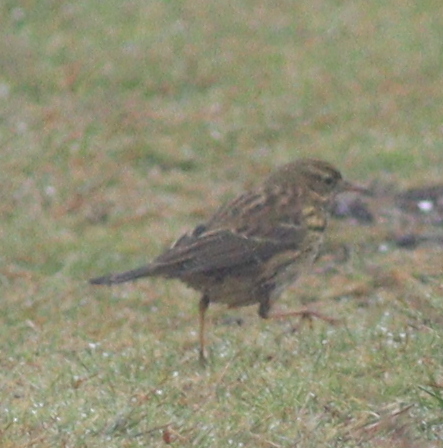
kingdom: Animalia
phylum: Chordata
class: Aves
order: Passeriformes
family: Motacillidae
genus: Anthus
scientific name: Anthus pratensis
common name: Meadow pipit
